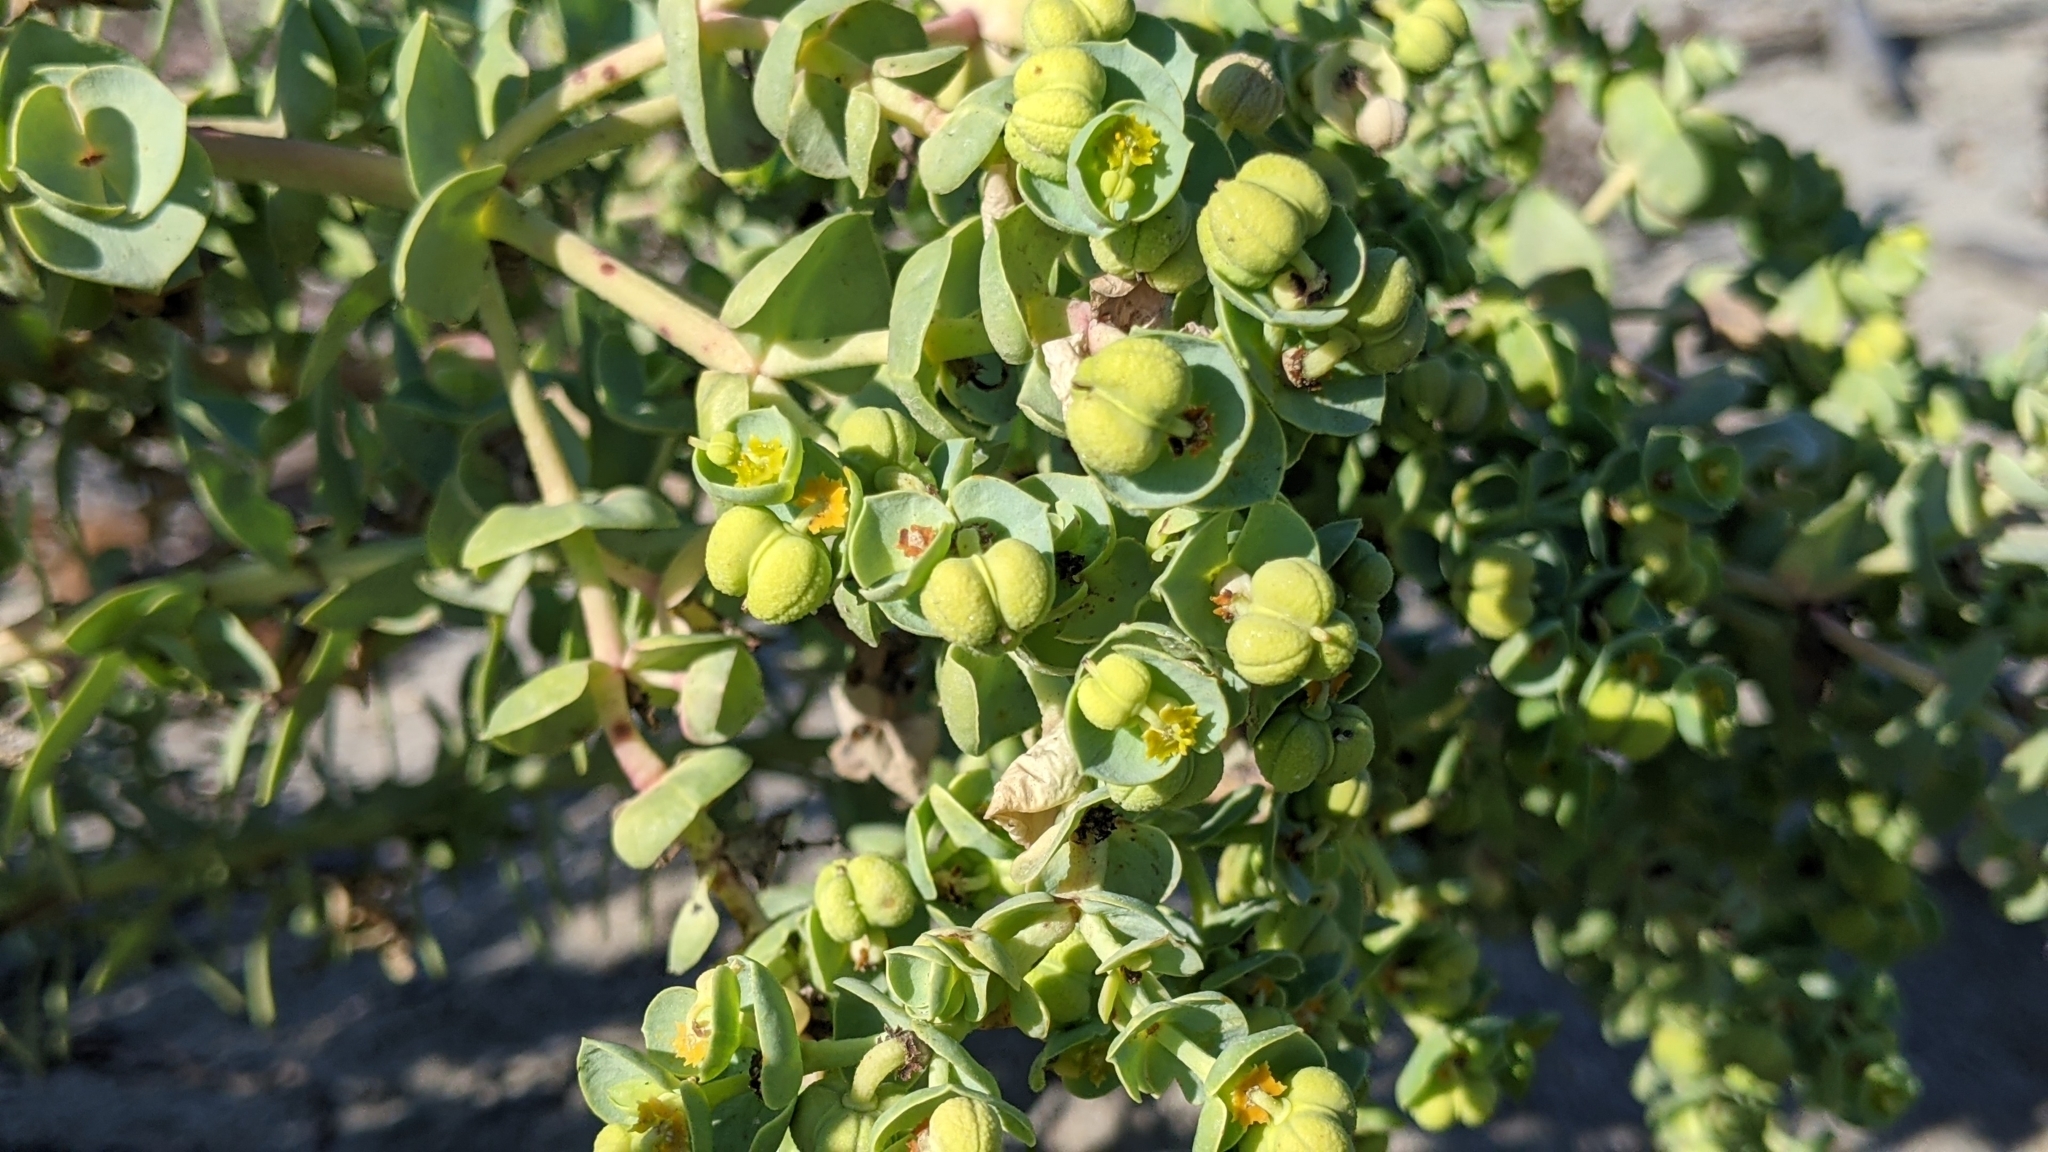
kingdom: Plantae
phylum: Tracheophyta
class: Magnoliopsida
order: Malpighiales
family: Euphorbiaceae
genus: Euphorbia
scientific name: Euphorbia paralias
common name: Sea spurge
